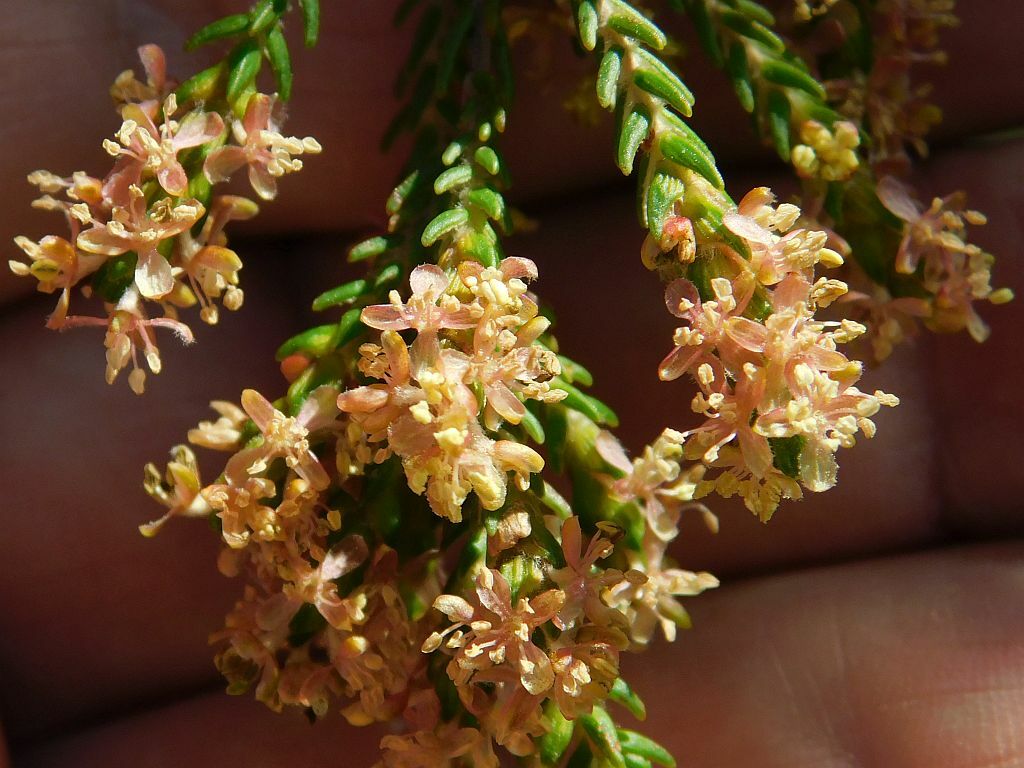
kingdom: Plantae
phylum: Tracheophyta
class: Magnoliopsida
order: Malvales
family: Thymelaeaceae
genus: Passerina
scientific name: Passerina corymbosa
